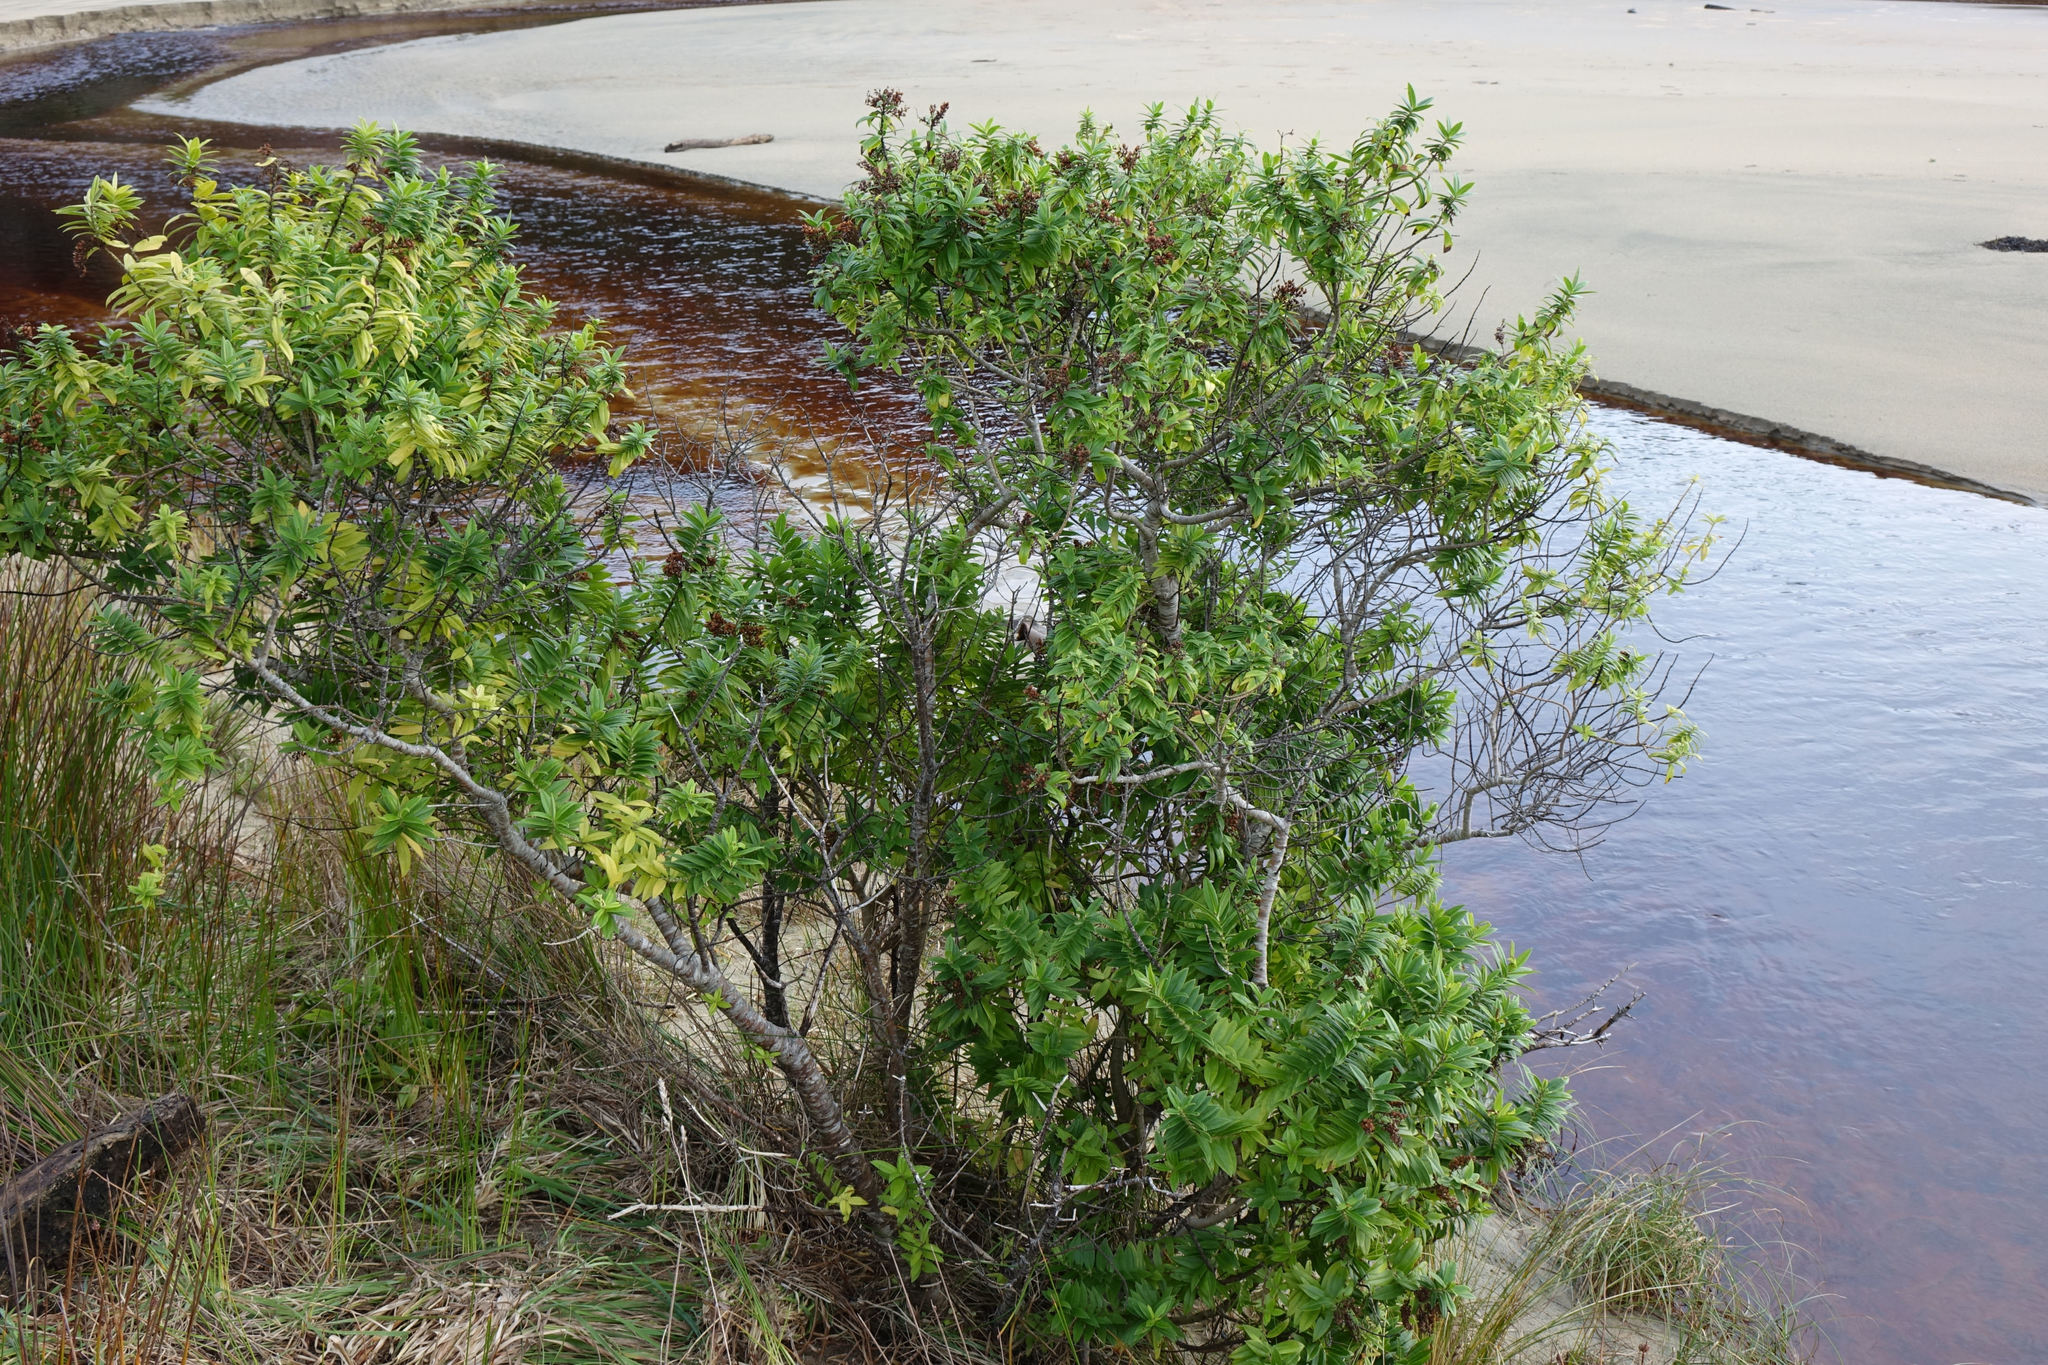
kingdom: Plantae
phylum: Tracheophyta
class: Magnoliopsida
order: Lamiales
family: Plantaginaceae
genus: Veronica
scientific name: Veronica elliptica
